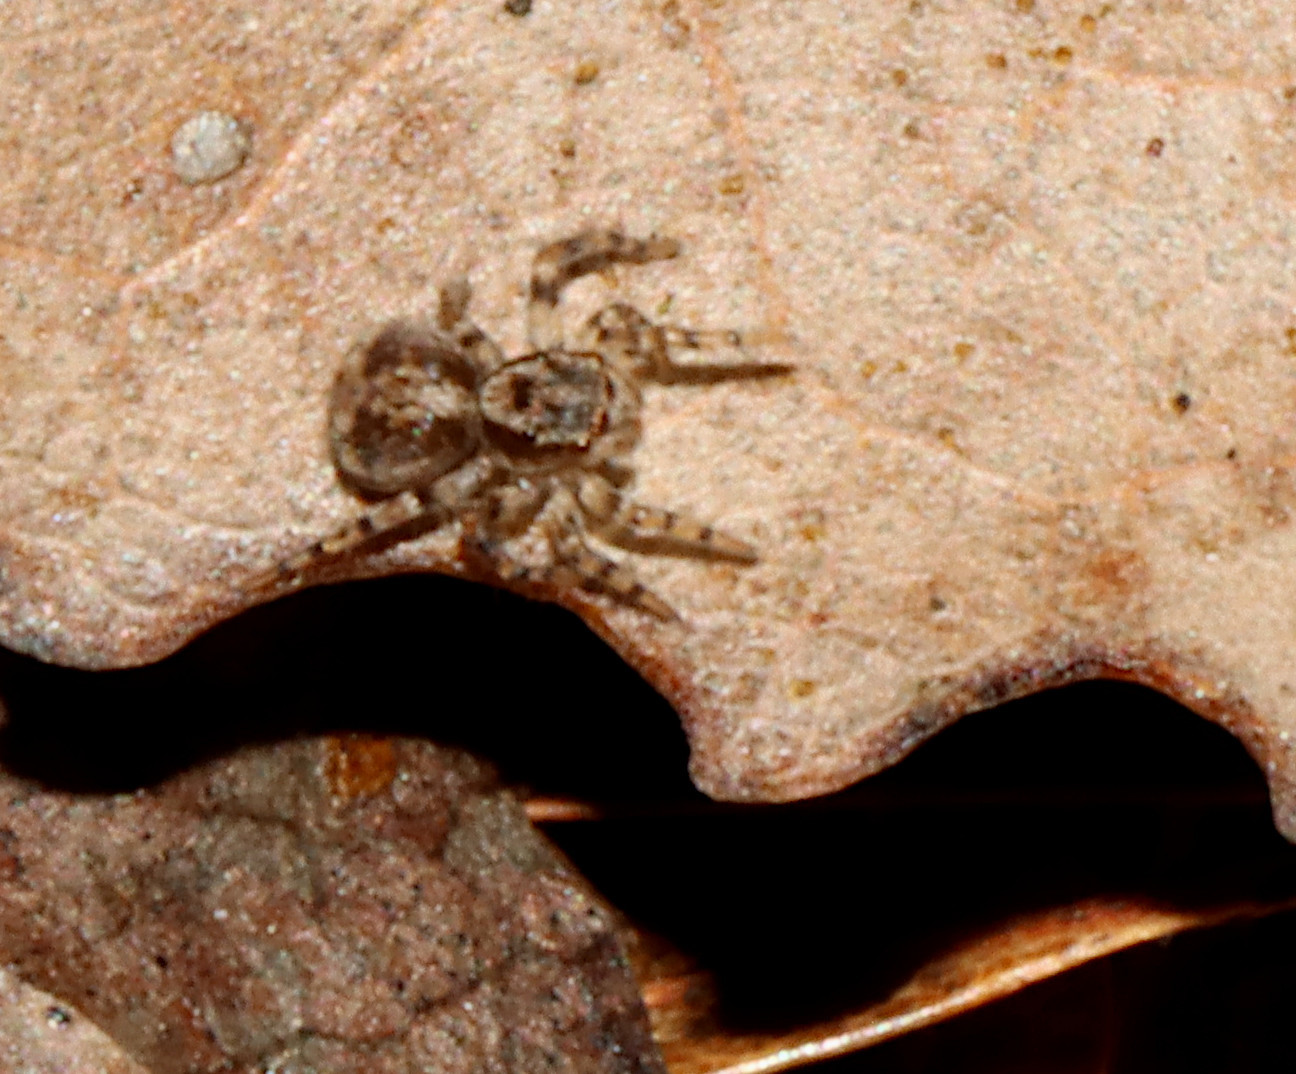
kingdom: Animalia
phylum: Arthropoda
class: Arachnida
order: Araneae
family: Salticidae
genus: Naphrys
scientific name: Naphrys pulex
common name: Flea jumping spider
